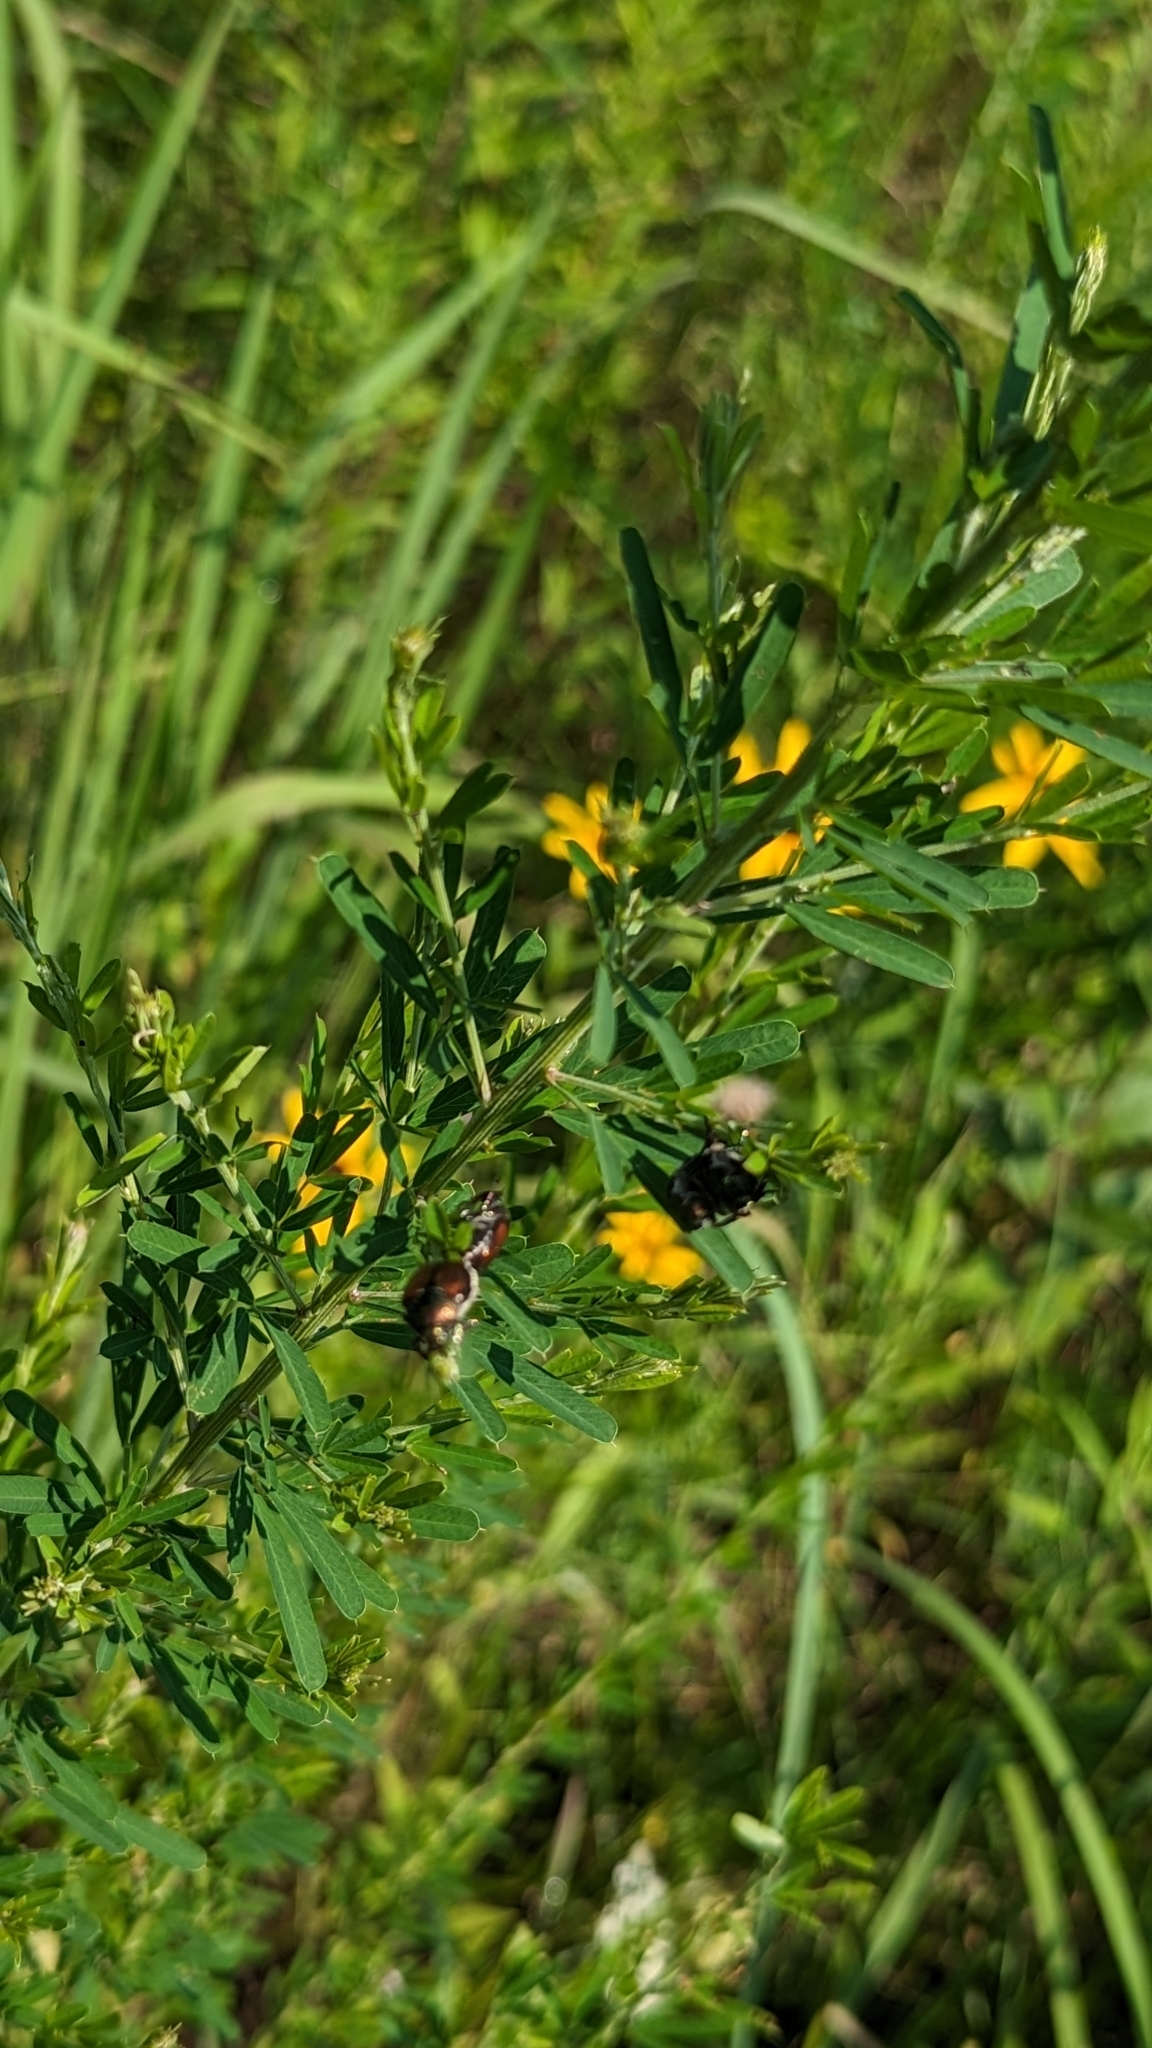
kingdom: Animalia
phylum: Arthropoda
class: Insecta
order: Coleoptera
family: Scarabaeidae
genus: Popillia
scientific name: Popillia japonica
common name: Japanese beetle
